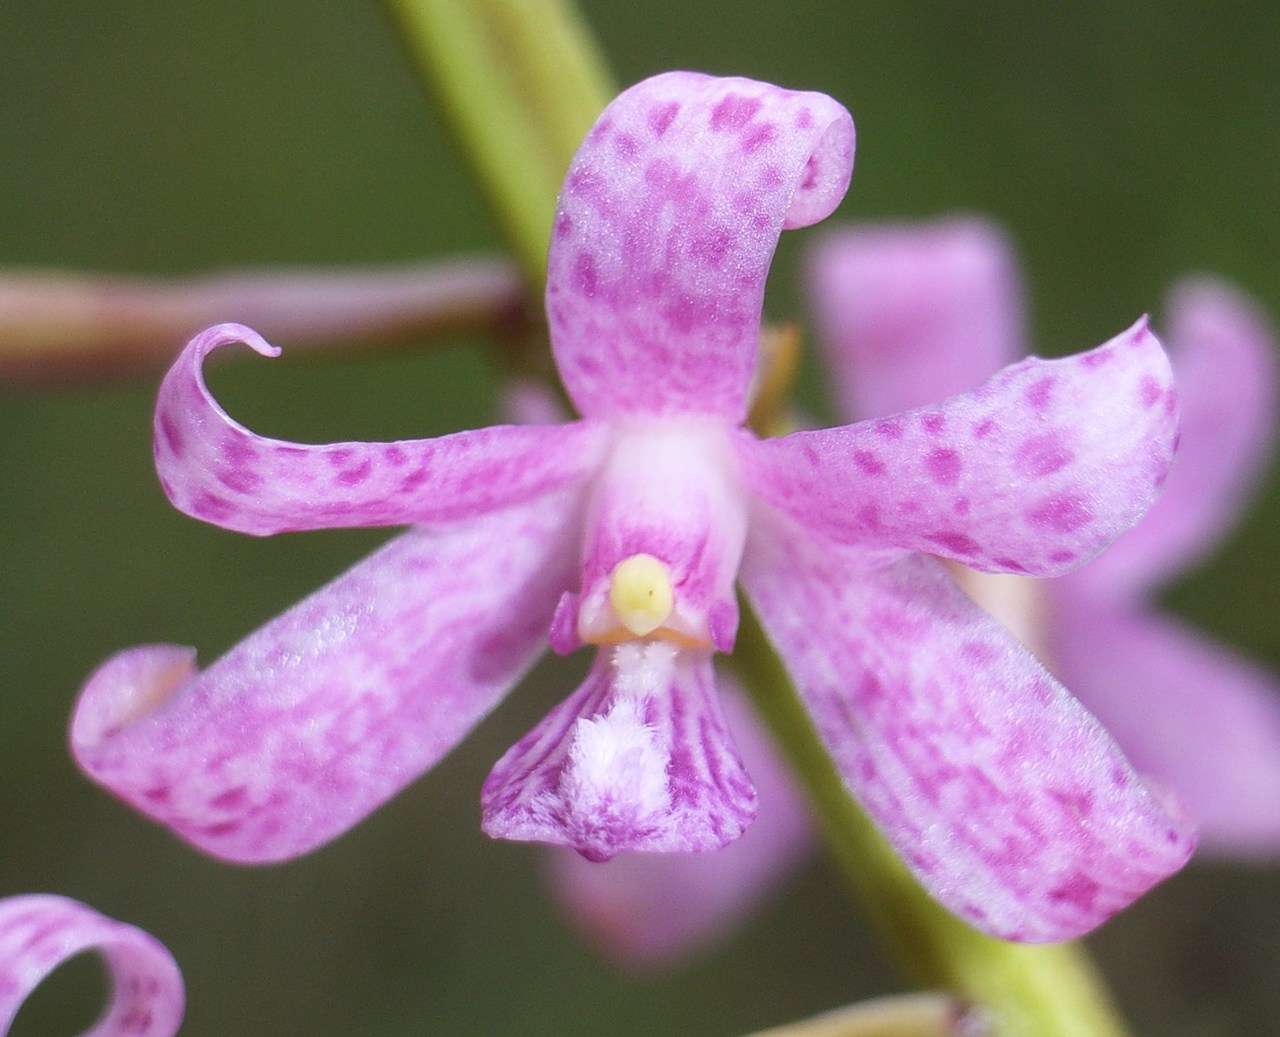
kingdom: Plantae
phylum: Tracheophyta
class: Liliopsida
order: Asparagales
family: Orchidaceae
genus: Dipodium
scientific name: Dipodium roseum
